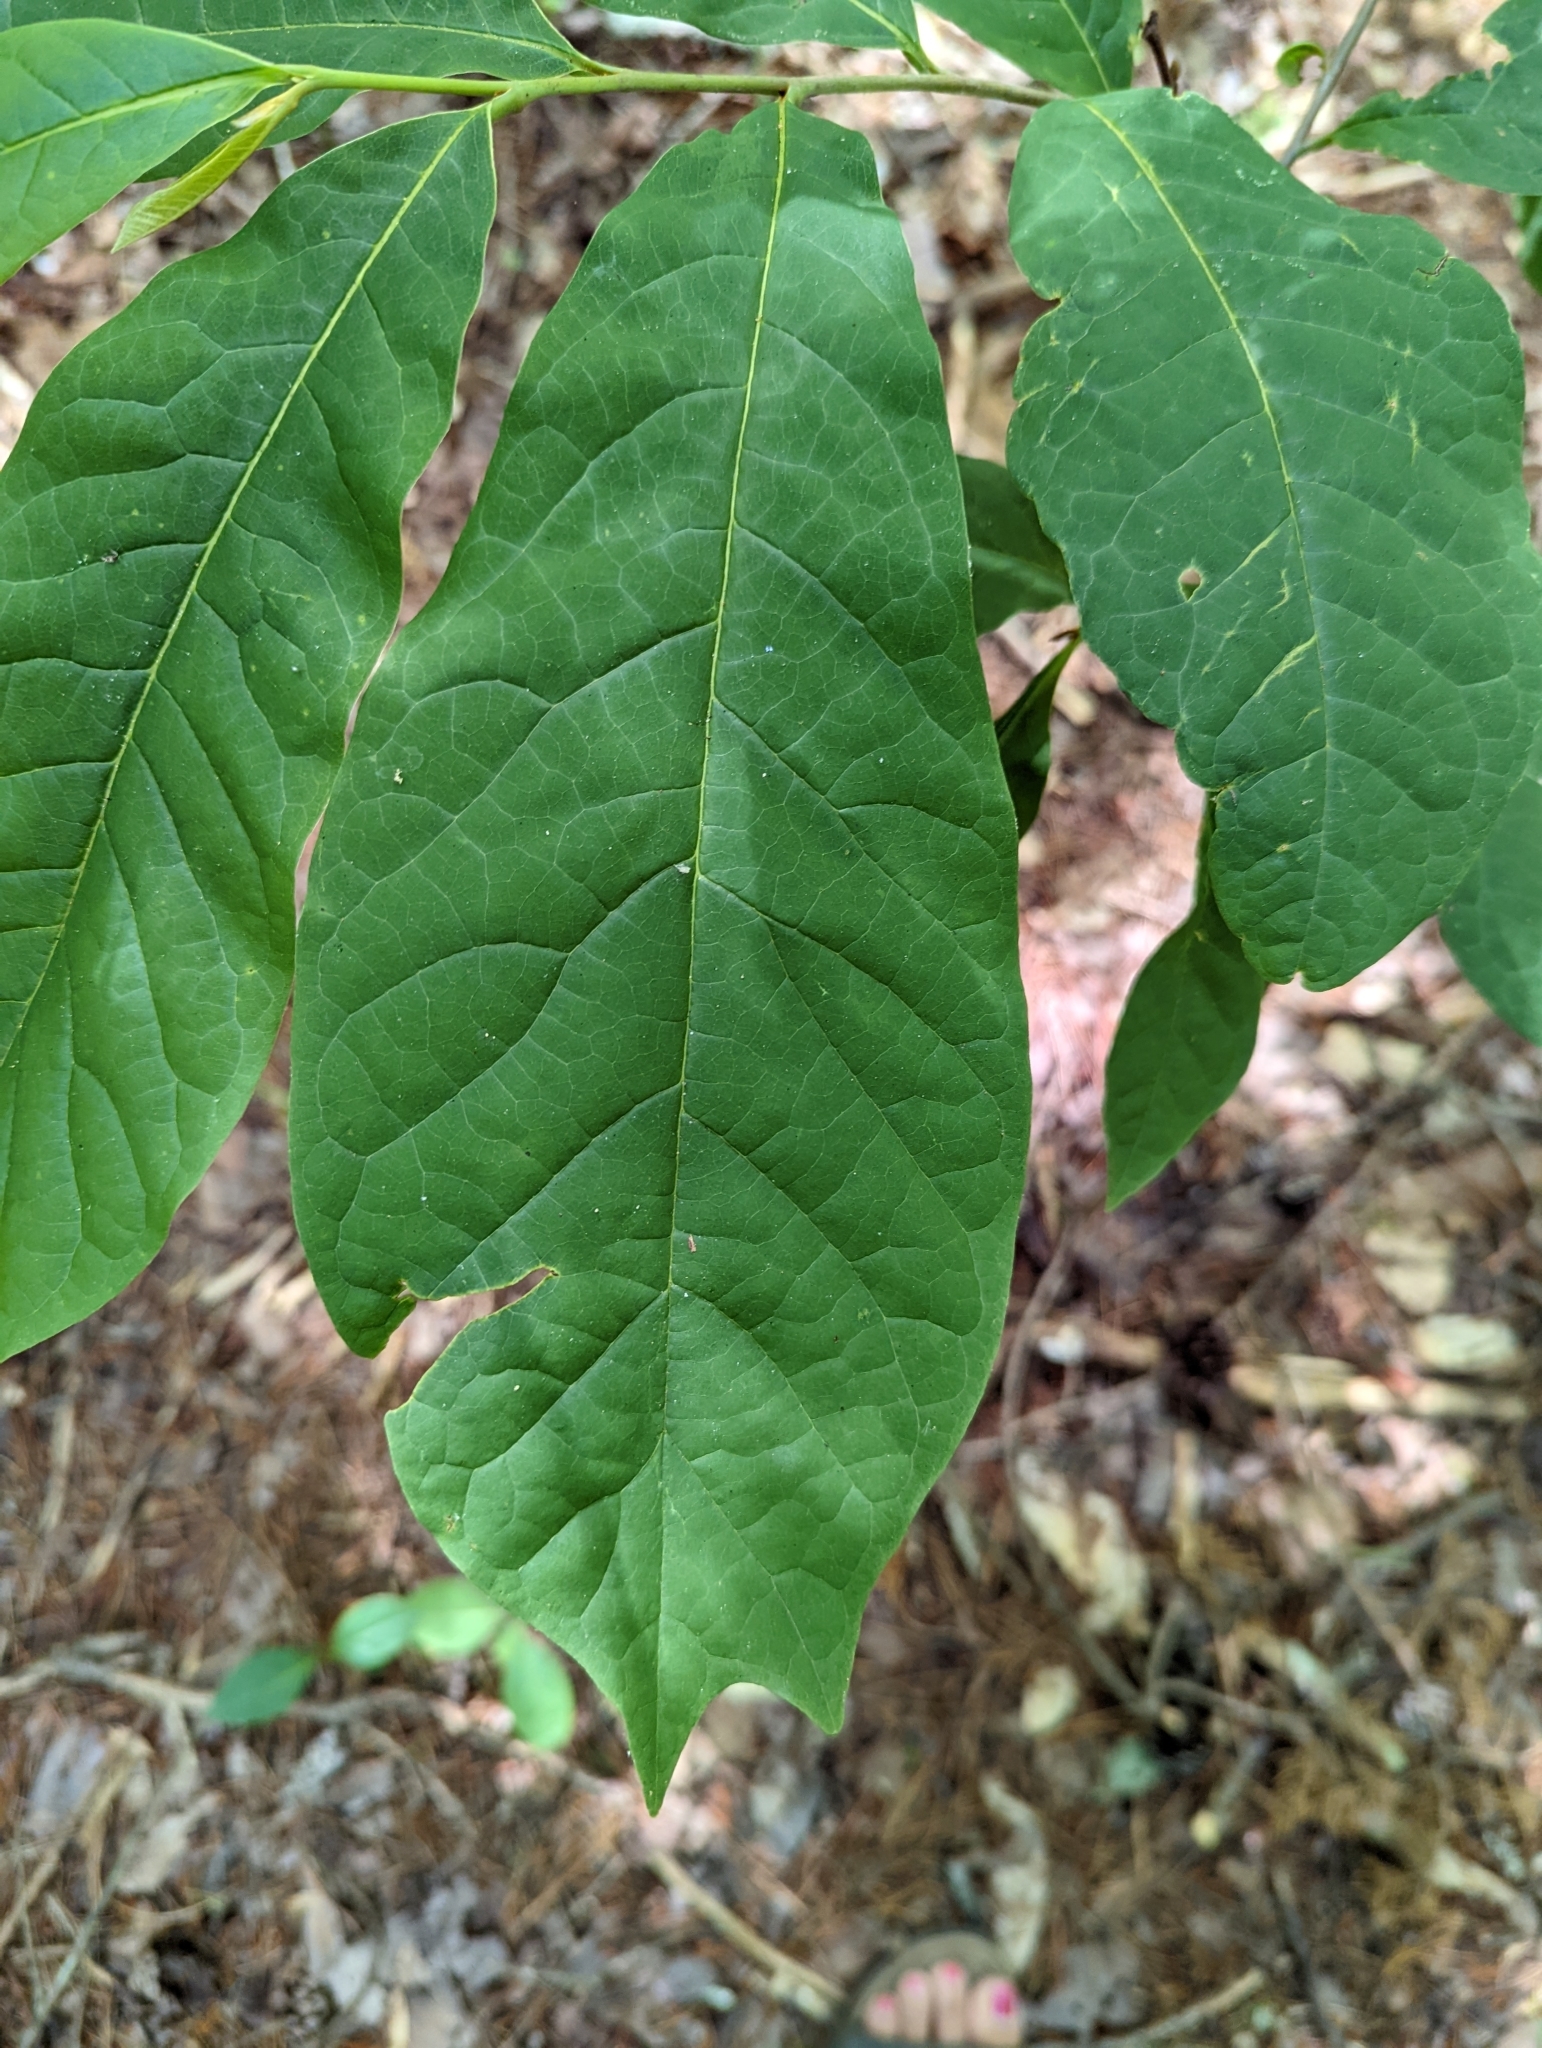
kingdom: Plantae
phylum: Tracheophyta
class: Magnoliopsida
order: Magnoliales
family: Annonaceae
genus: Asimina
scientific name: Asimina triloba
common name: Dog-banana
